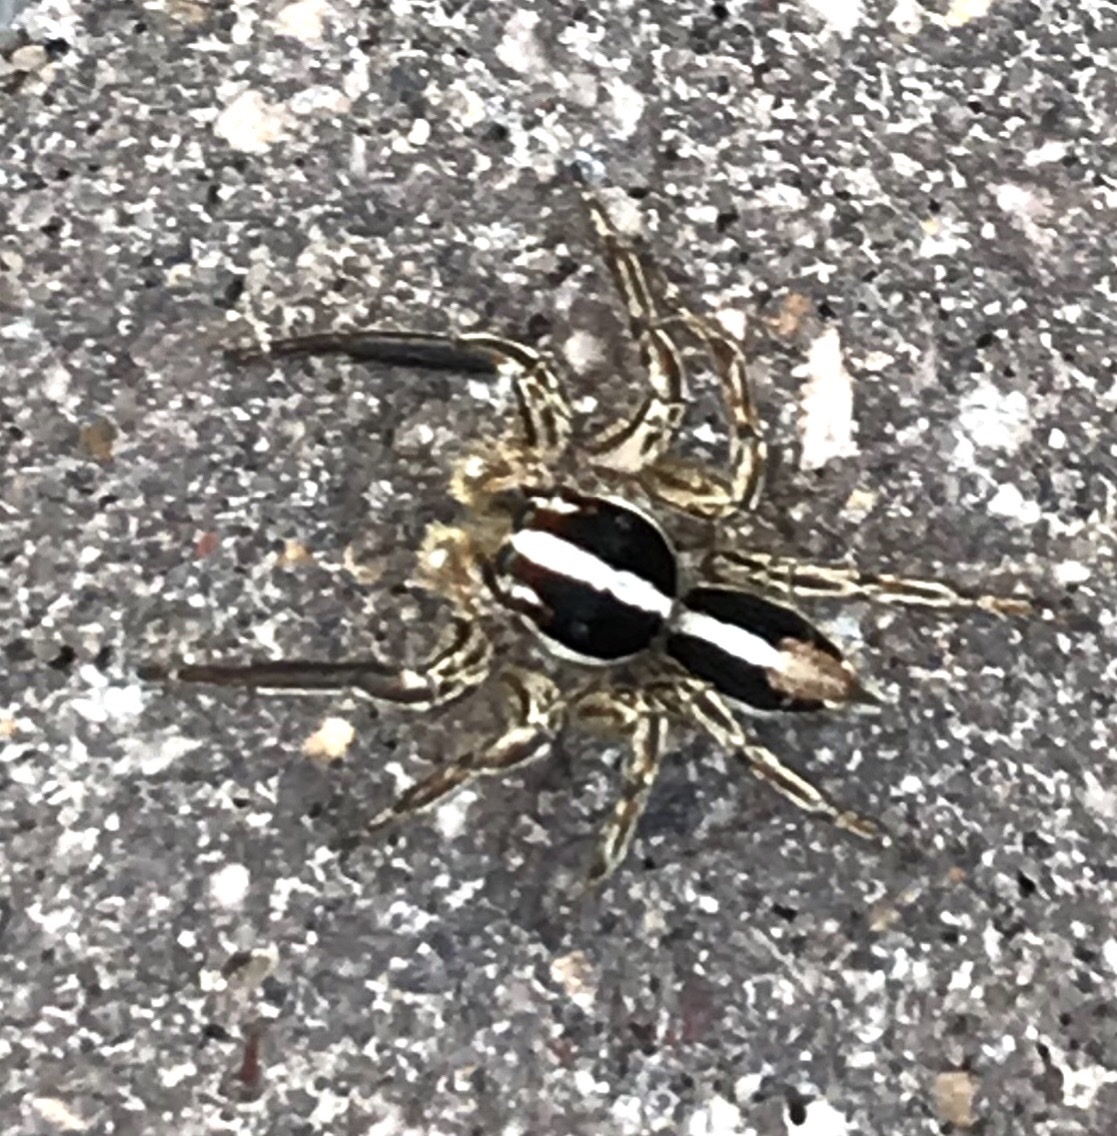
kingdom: Animalia
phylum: Arthropoda
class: Arachnida
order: Araneae
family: Salticidae
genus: Plexippus
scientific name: Plexippus paykulli
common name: Pantropical jumper
